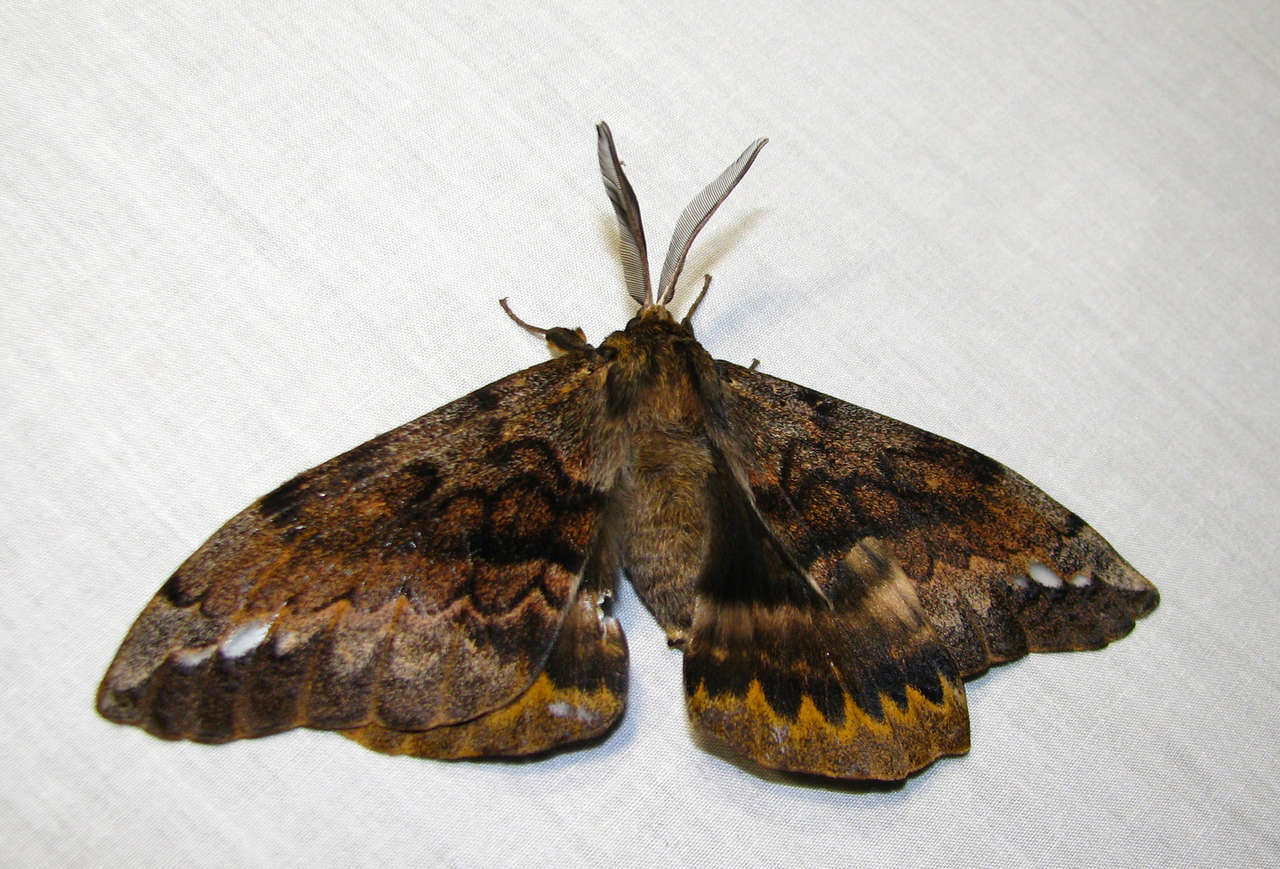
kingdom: Animalia
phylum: Arthropoda
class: Insecta
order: Lepidoptera
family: Anthelidae
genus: Chelepteryx
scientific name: Chelepteryx collesi
